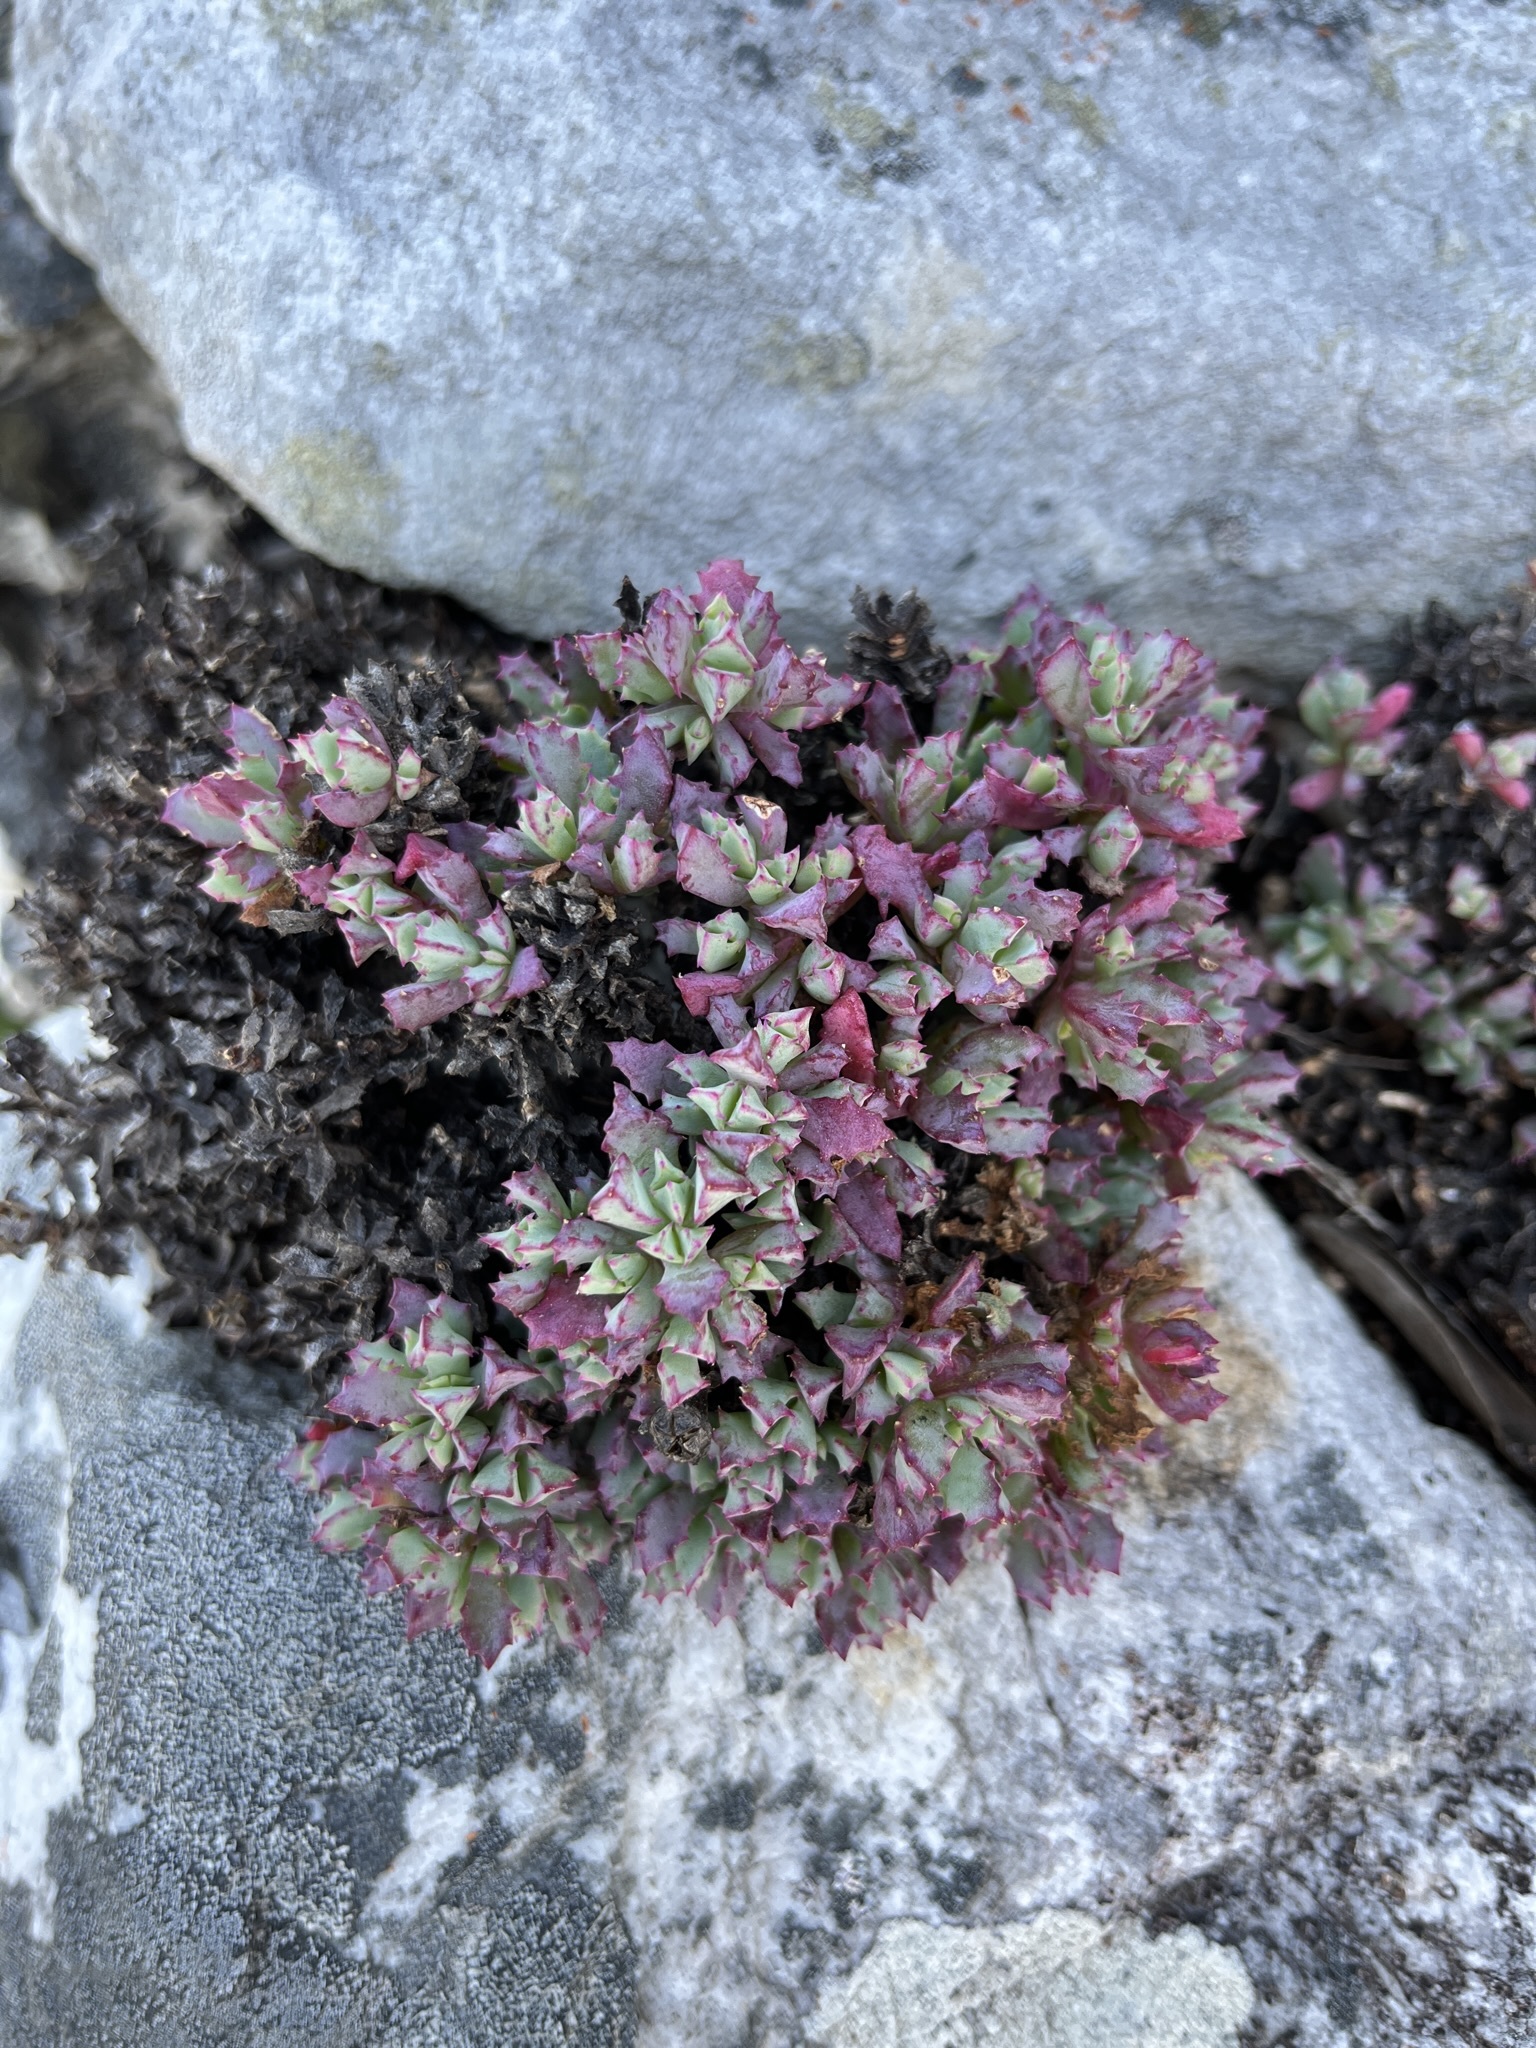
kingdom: Plantae
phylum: Tracheophyta
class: Magnoliopsida
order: Caryophyllales
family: Aizoaceae
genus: Oscularia
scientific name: Oscularia deltoides
